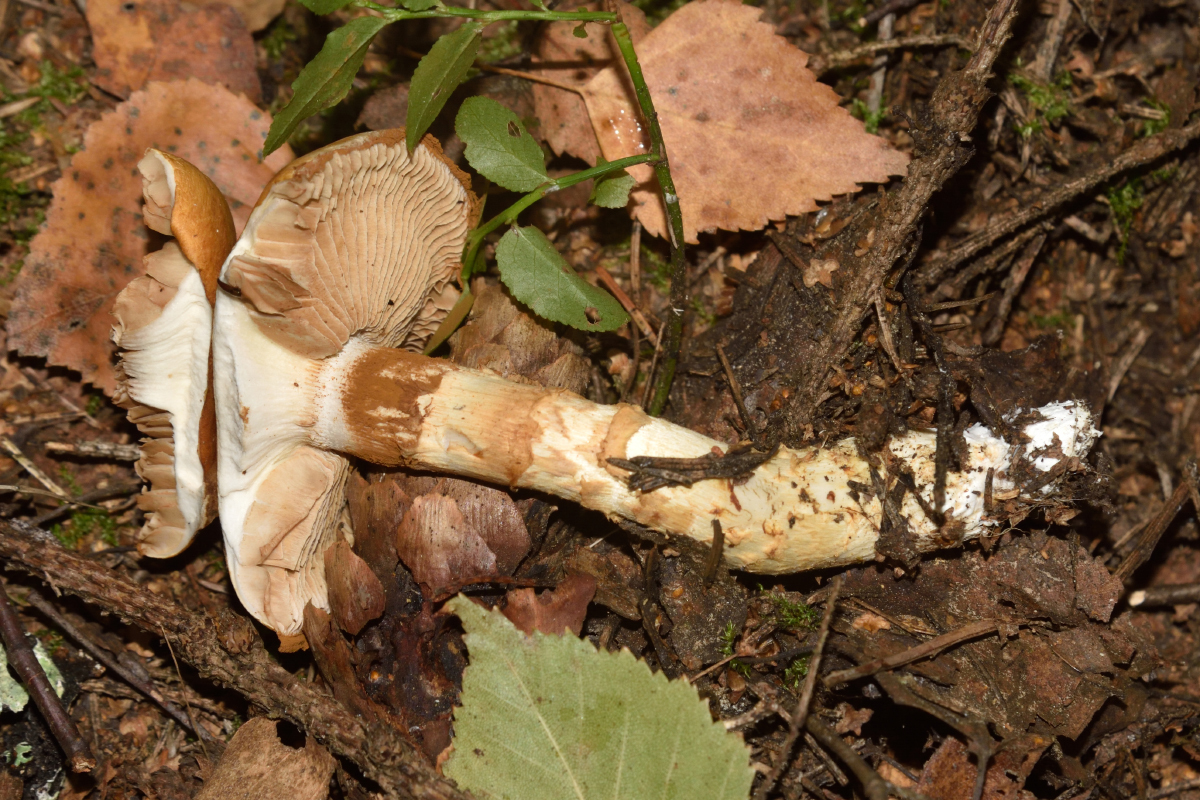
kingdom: Fungi
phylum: Basidiomycota
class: Agaricomycetes
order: Agaricales
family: Cortinariaceae
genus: Phlegmacium
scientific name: Phlegmacium triumphans
